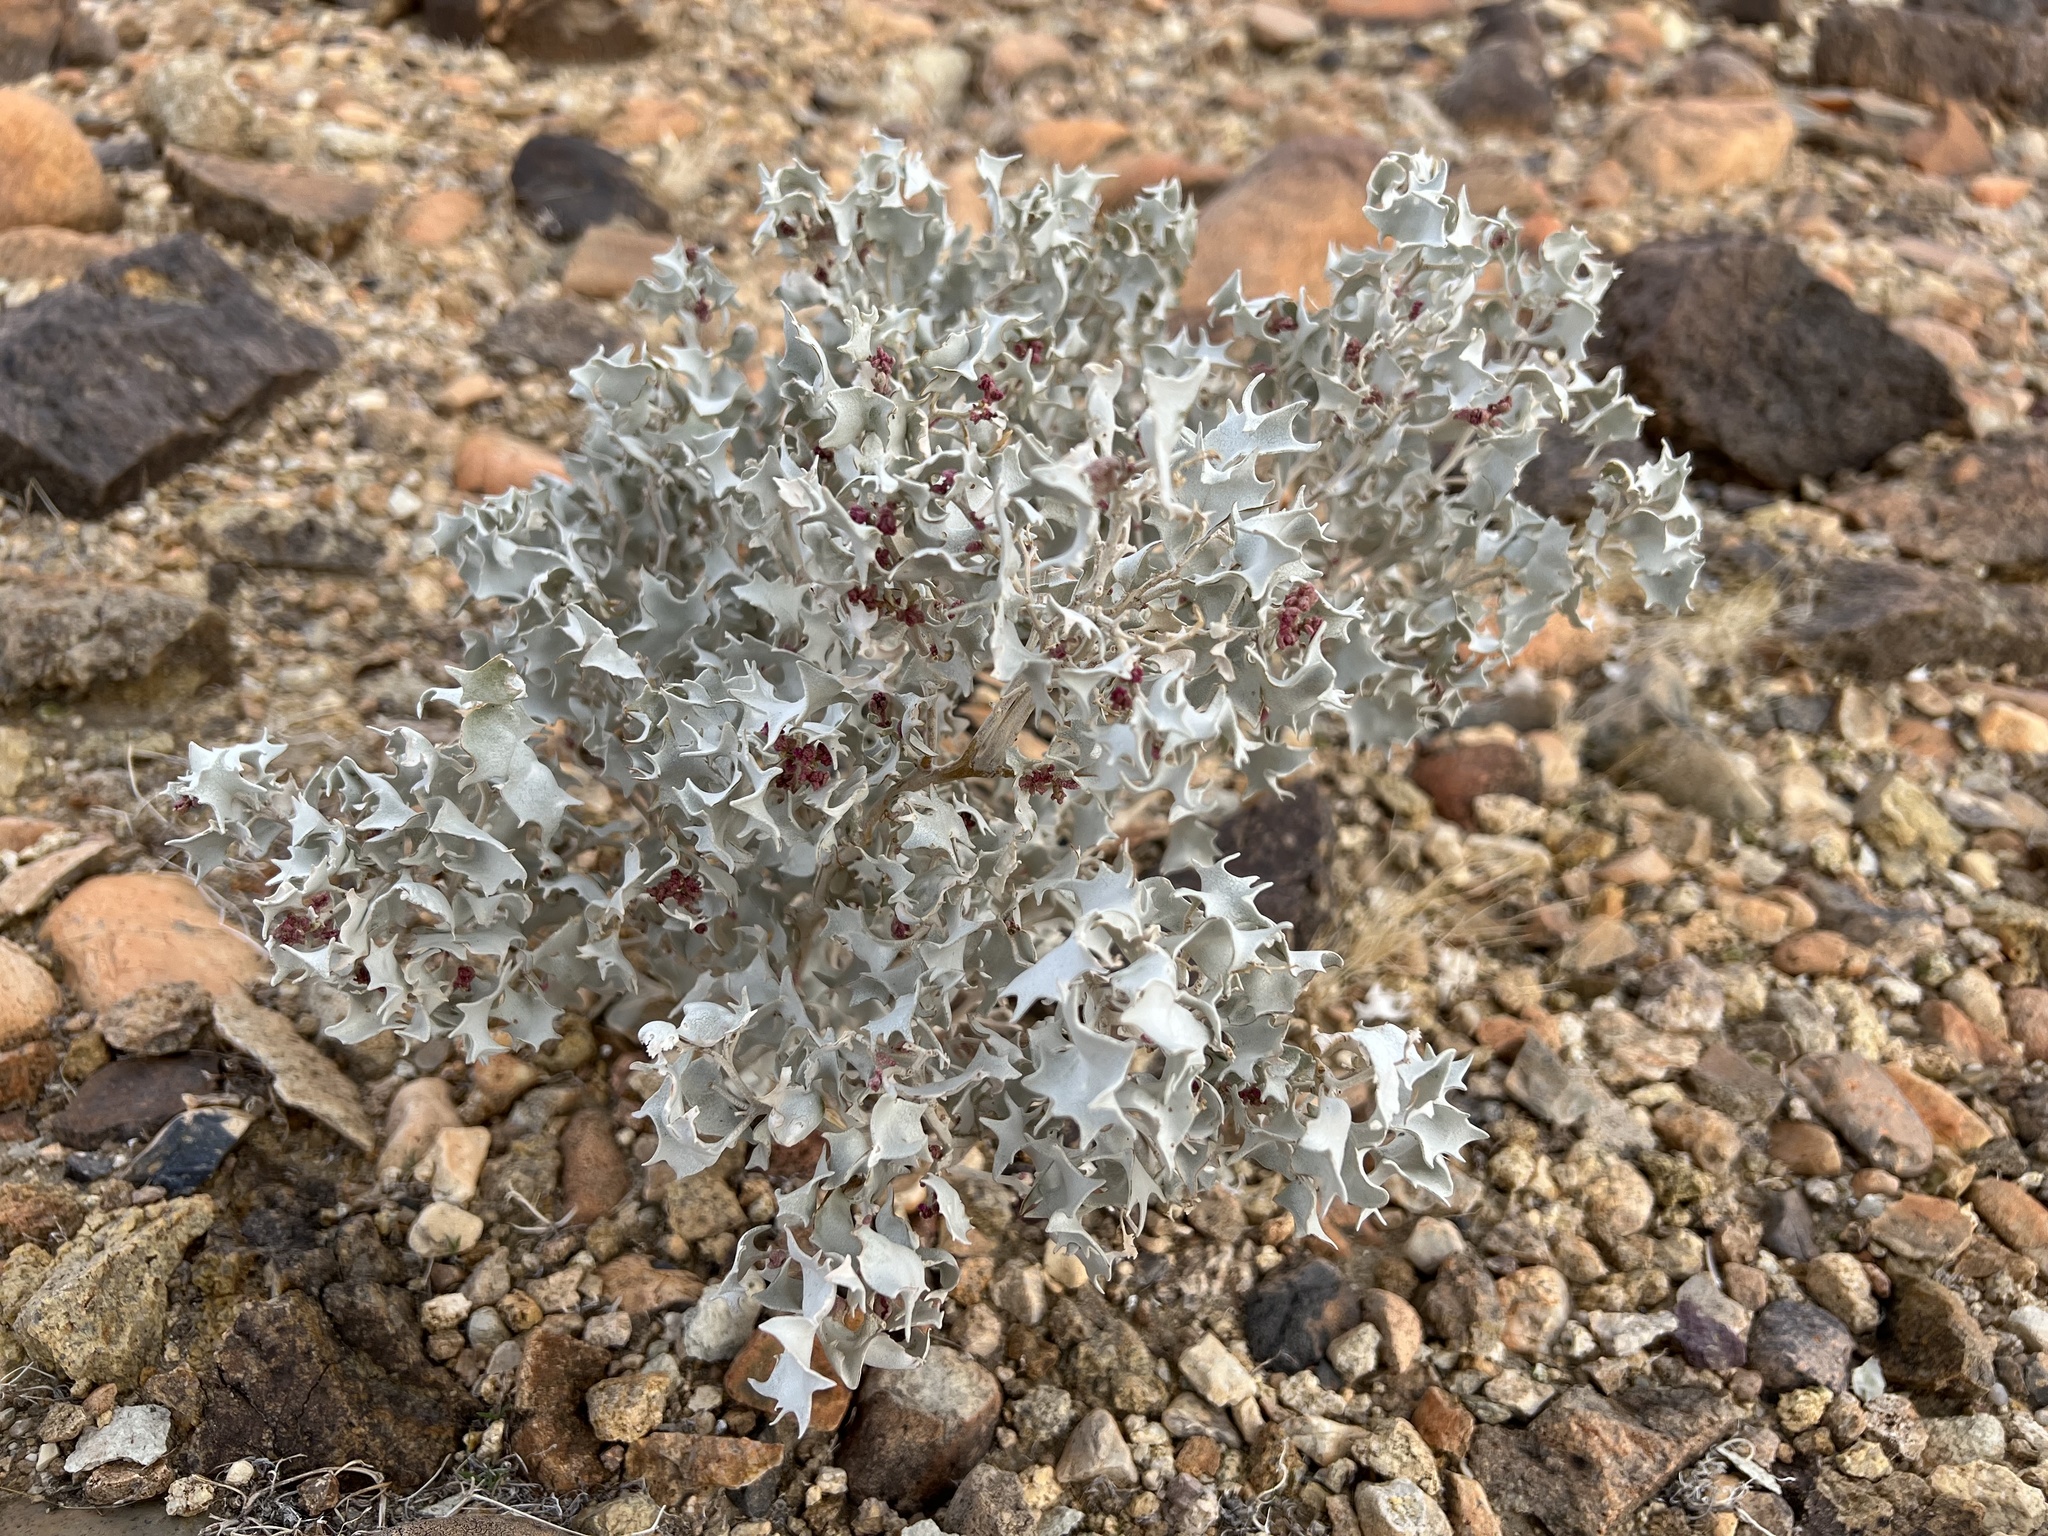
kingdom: Plantae
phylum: Tracheophyta
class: Magnoliopsida
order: Caryophyllales
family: Amaranthaceae
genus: Atriplex
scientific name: Atriplex hymenelytra
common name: Desert-holly
